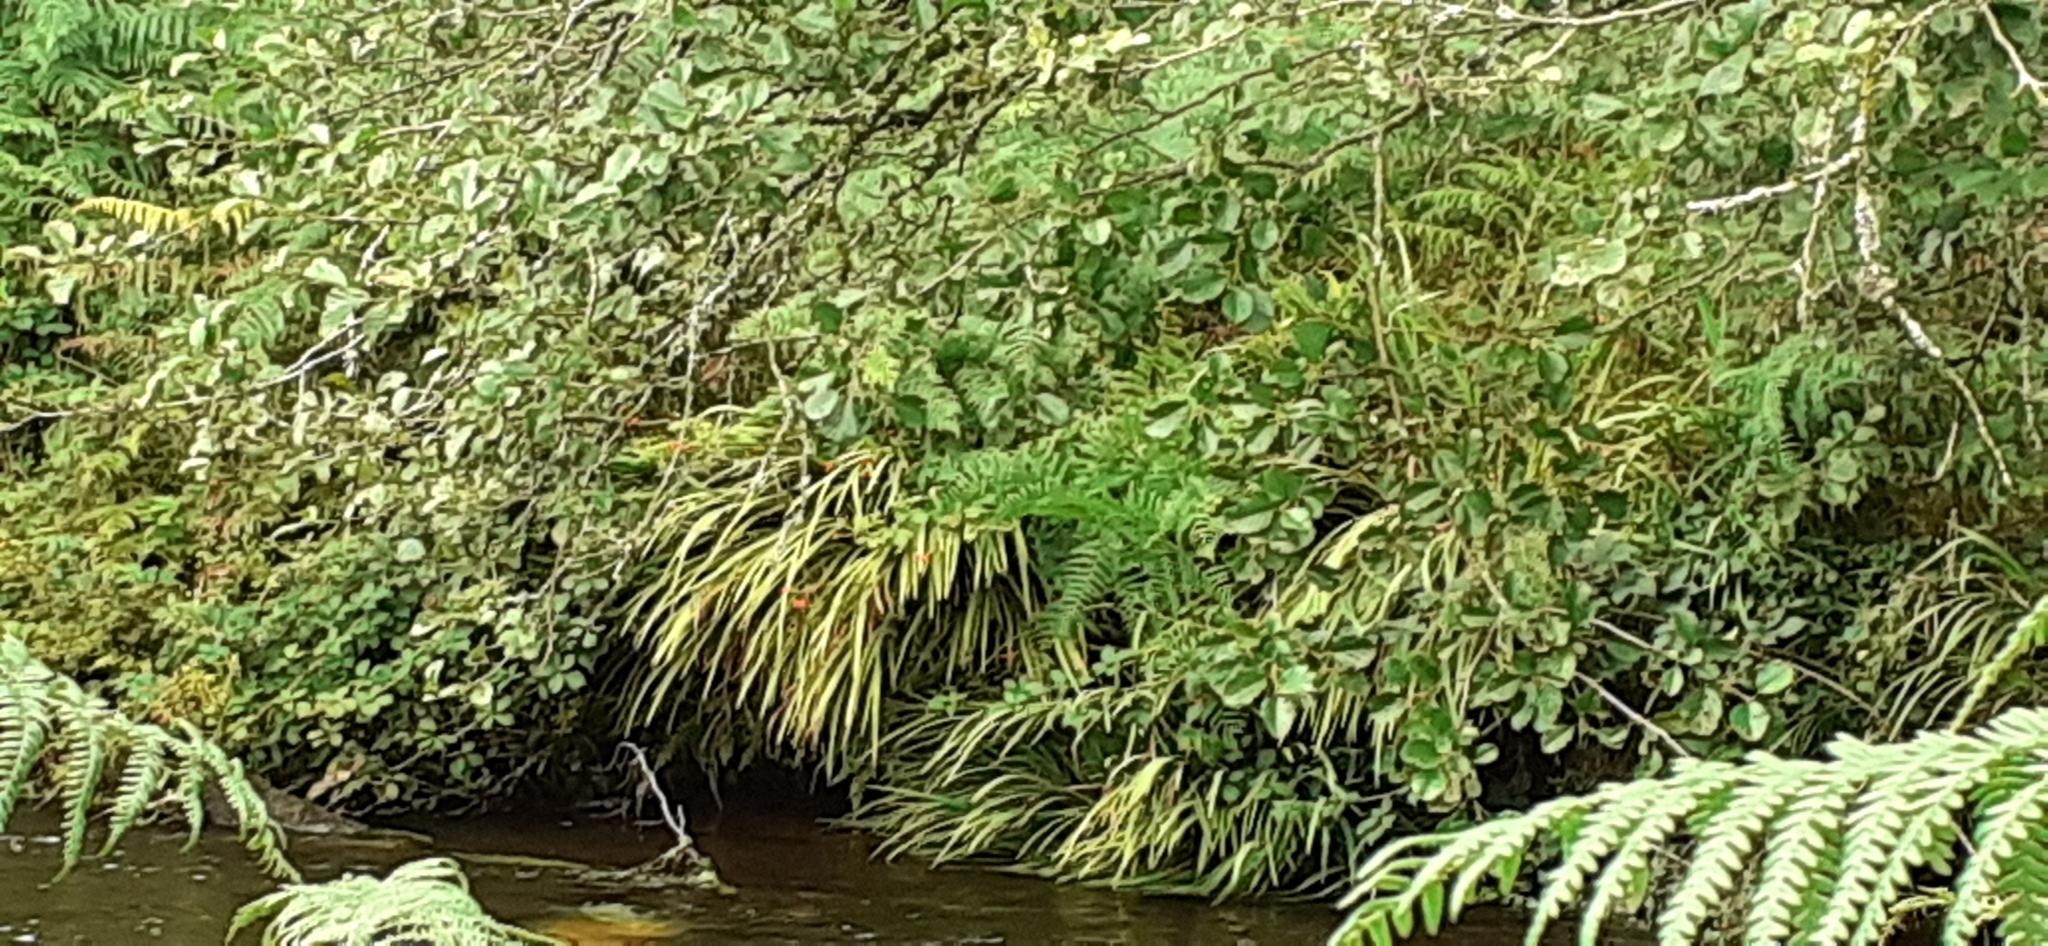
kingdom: Plantae
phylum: Tracheophyta
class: Liliopsida
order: Asparagales
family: Iridaceae
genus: Crocosmia
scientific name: Crocosmia crocosmiiflora
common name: Montbretia
